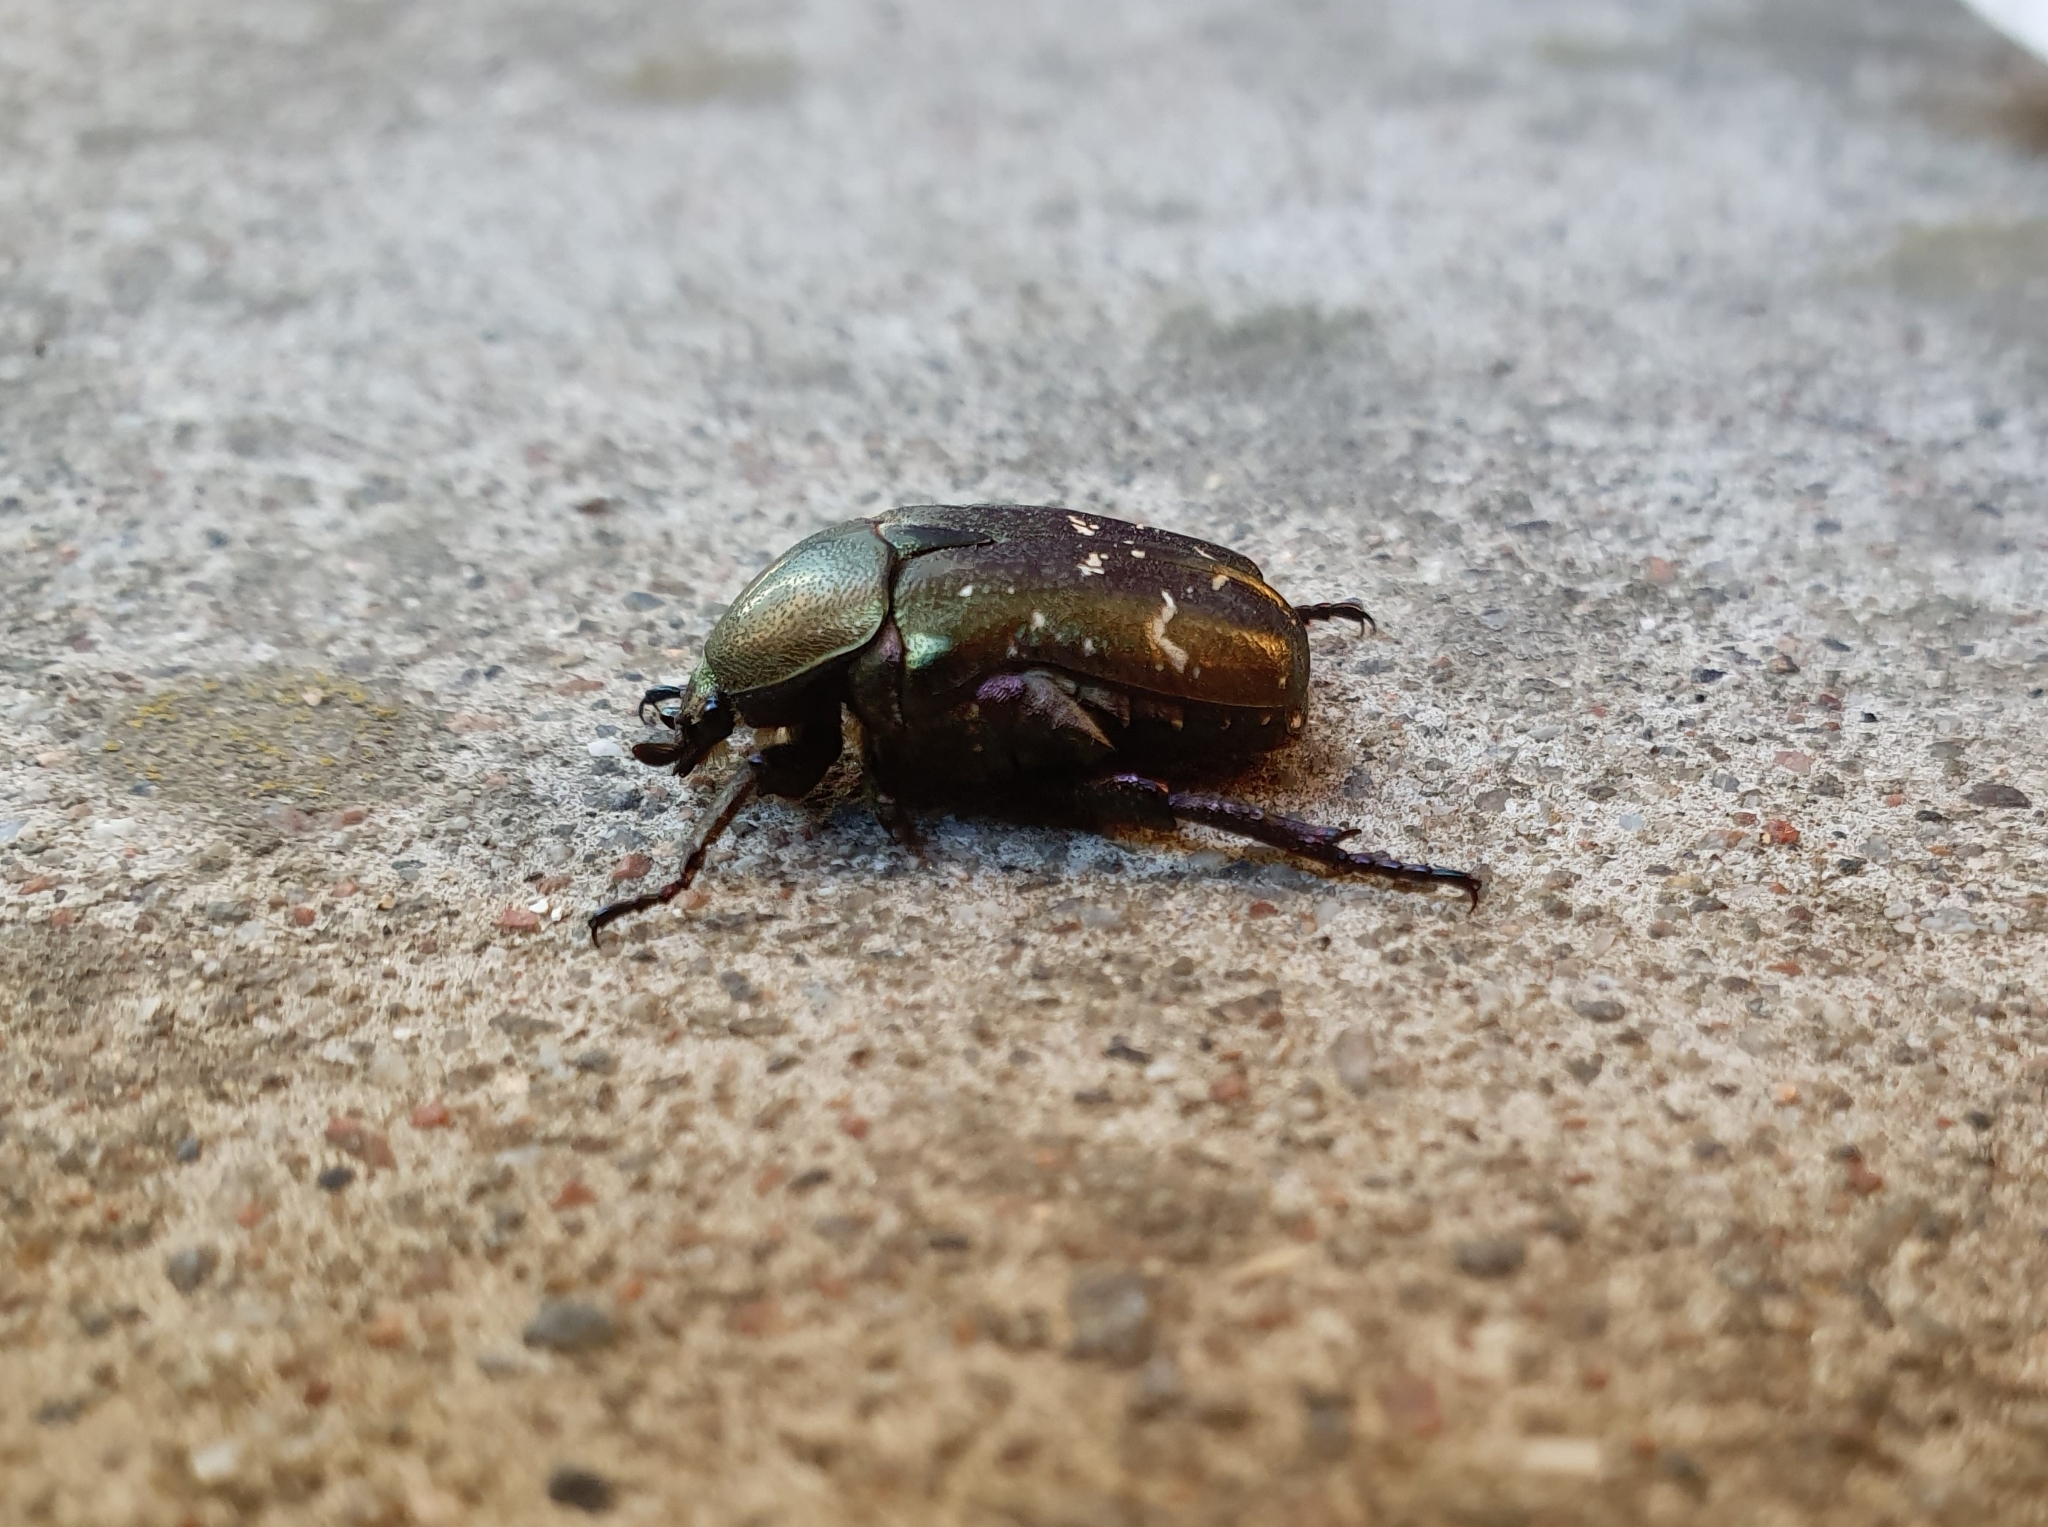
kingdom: Animalia
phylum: Arthropoda
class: Insecta
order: Coleoptera
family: Scarabaeidae
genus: Protaetia
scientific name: Protaetia cuprea
